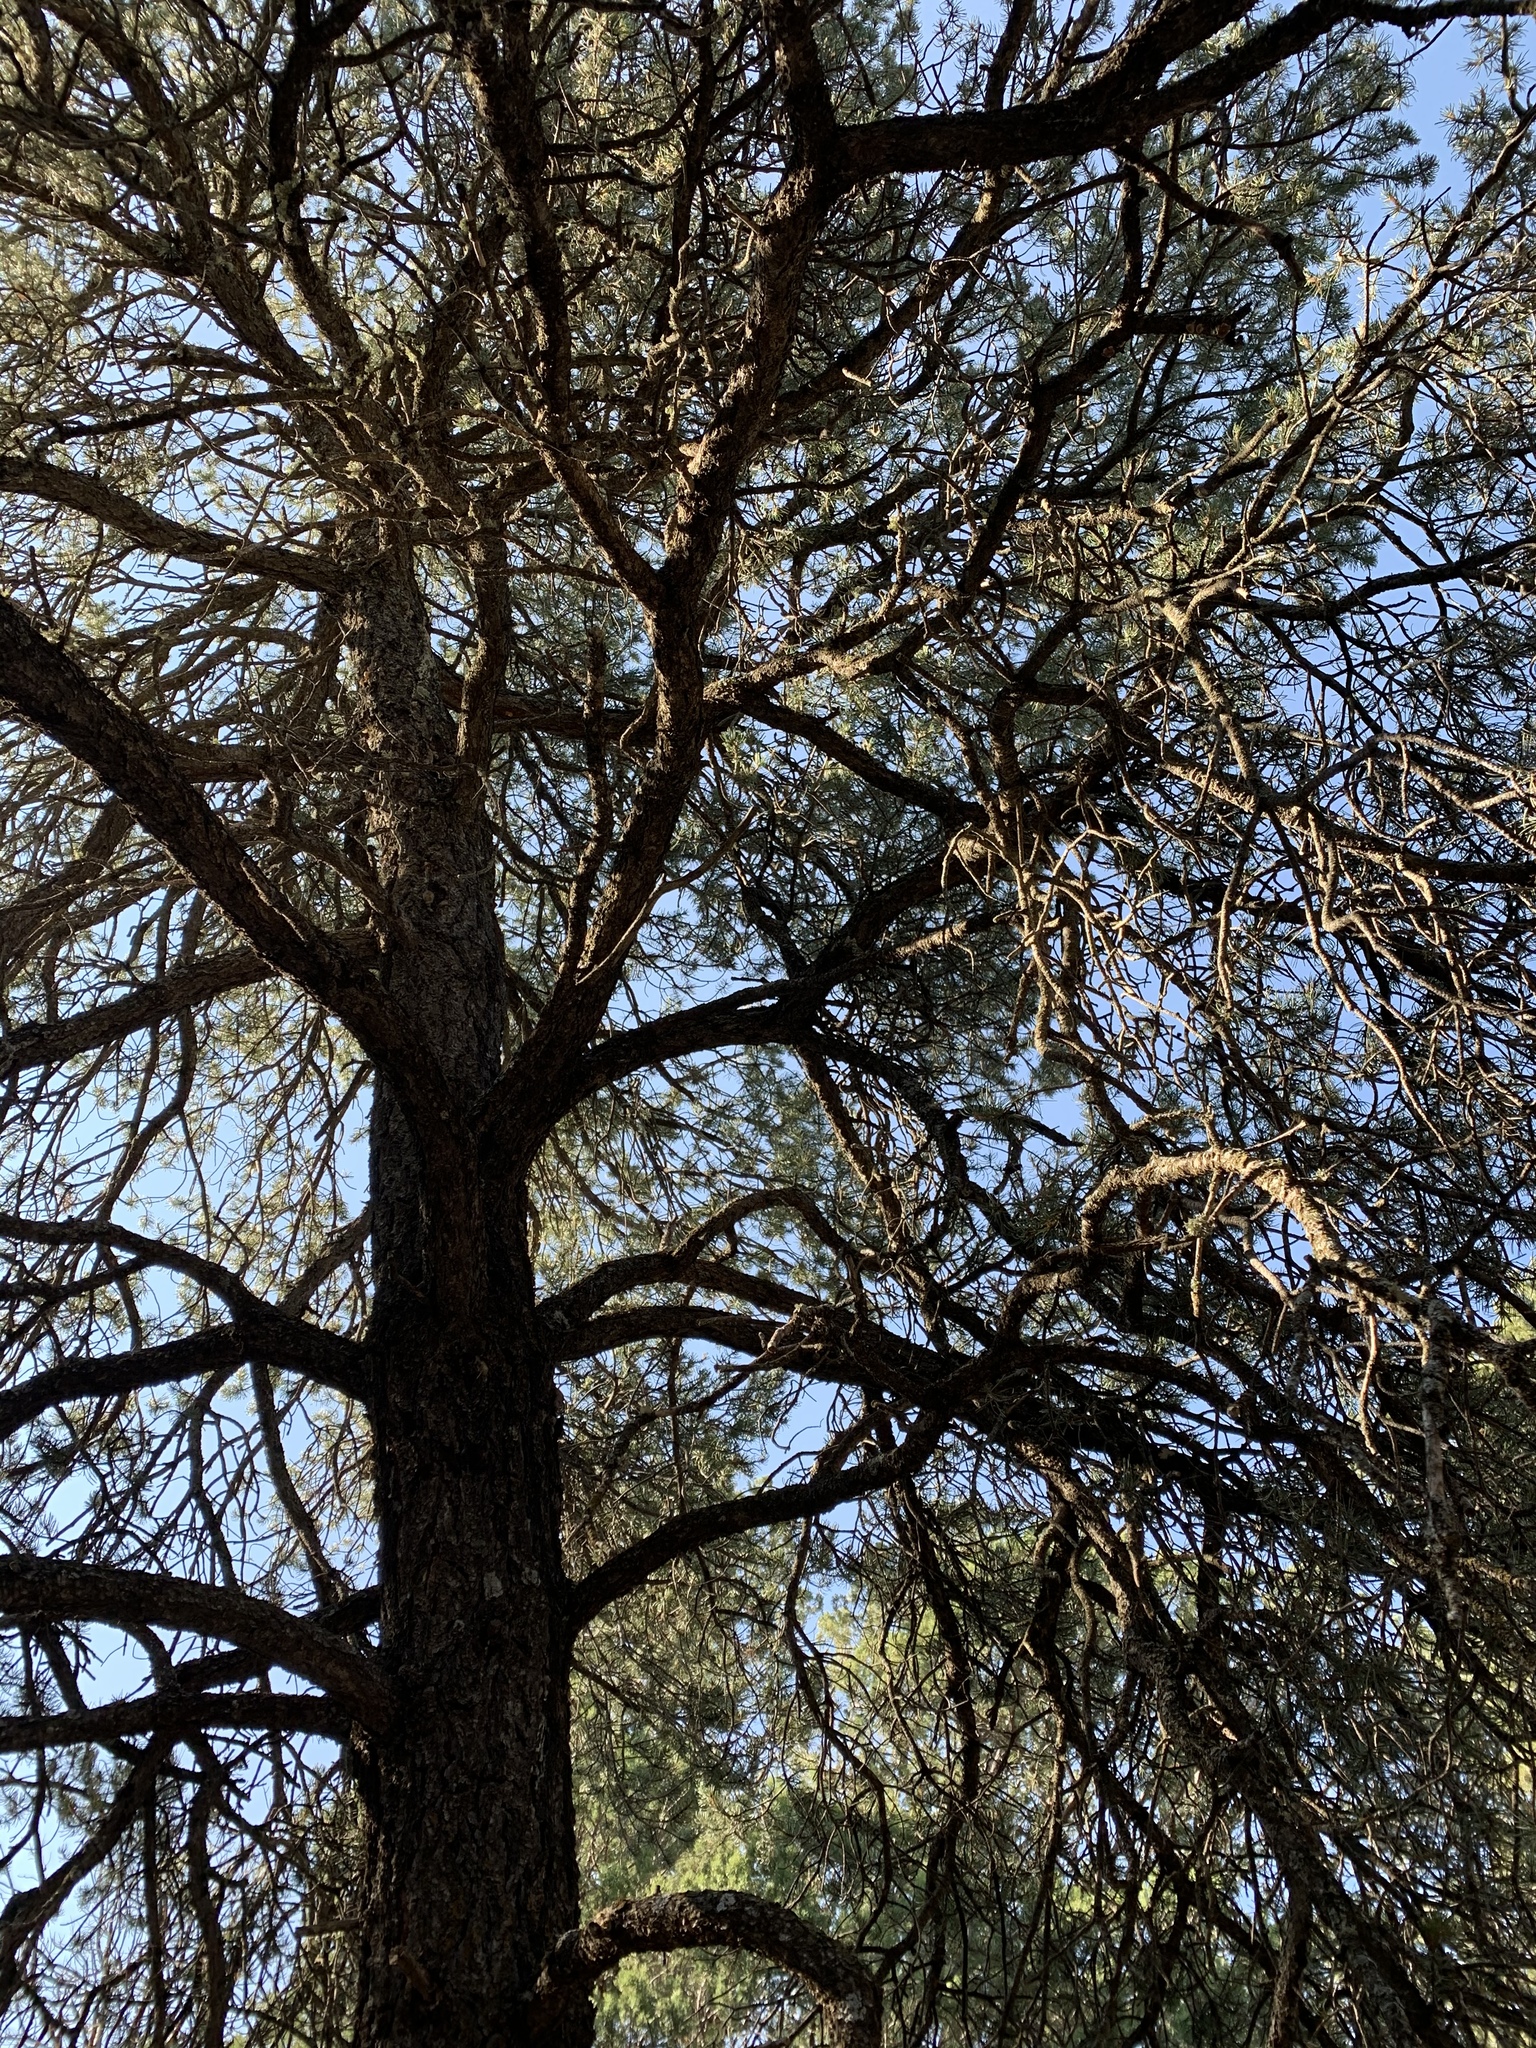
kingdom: Plantae
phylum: Tracheophyta
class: Pinopsida
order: Pinales
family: Pinaceae
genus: Pinus
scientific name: Pinus edulis
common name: Colorado pinyon
